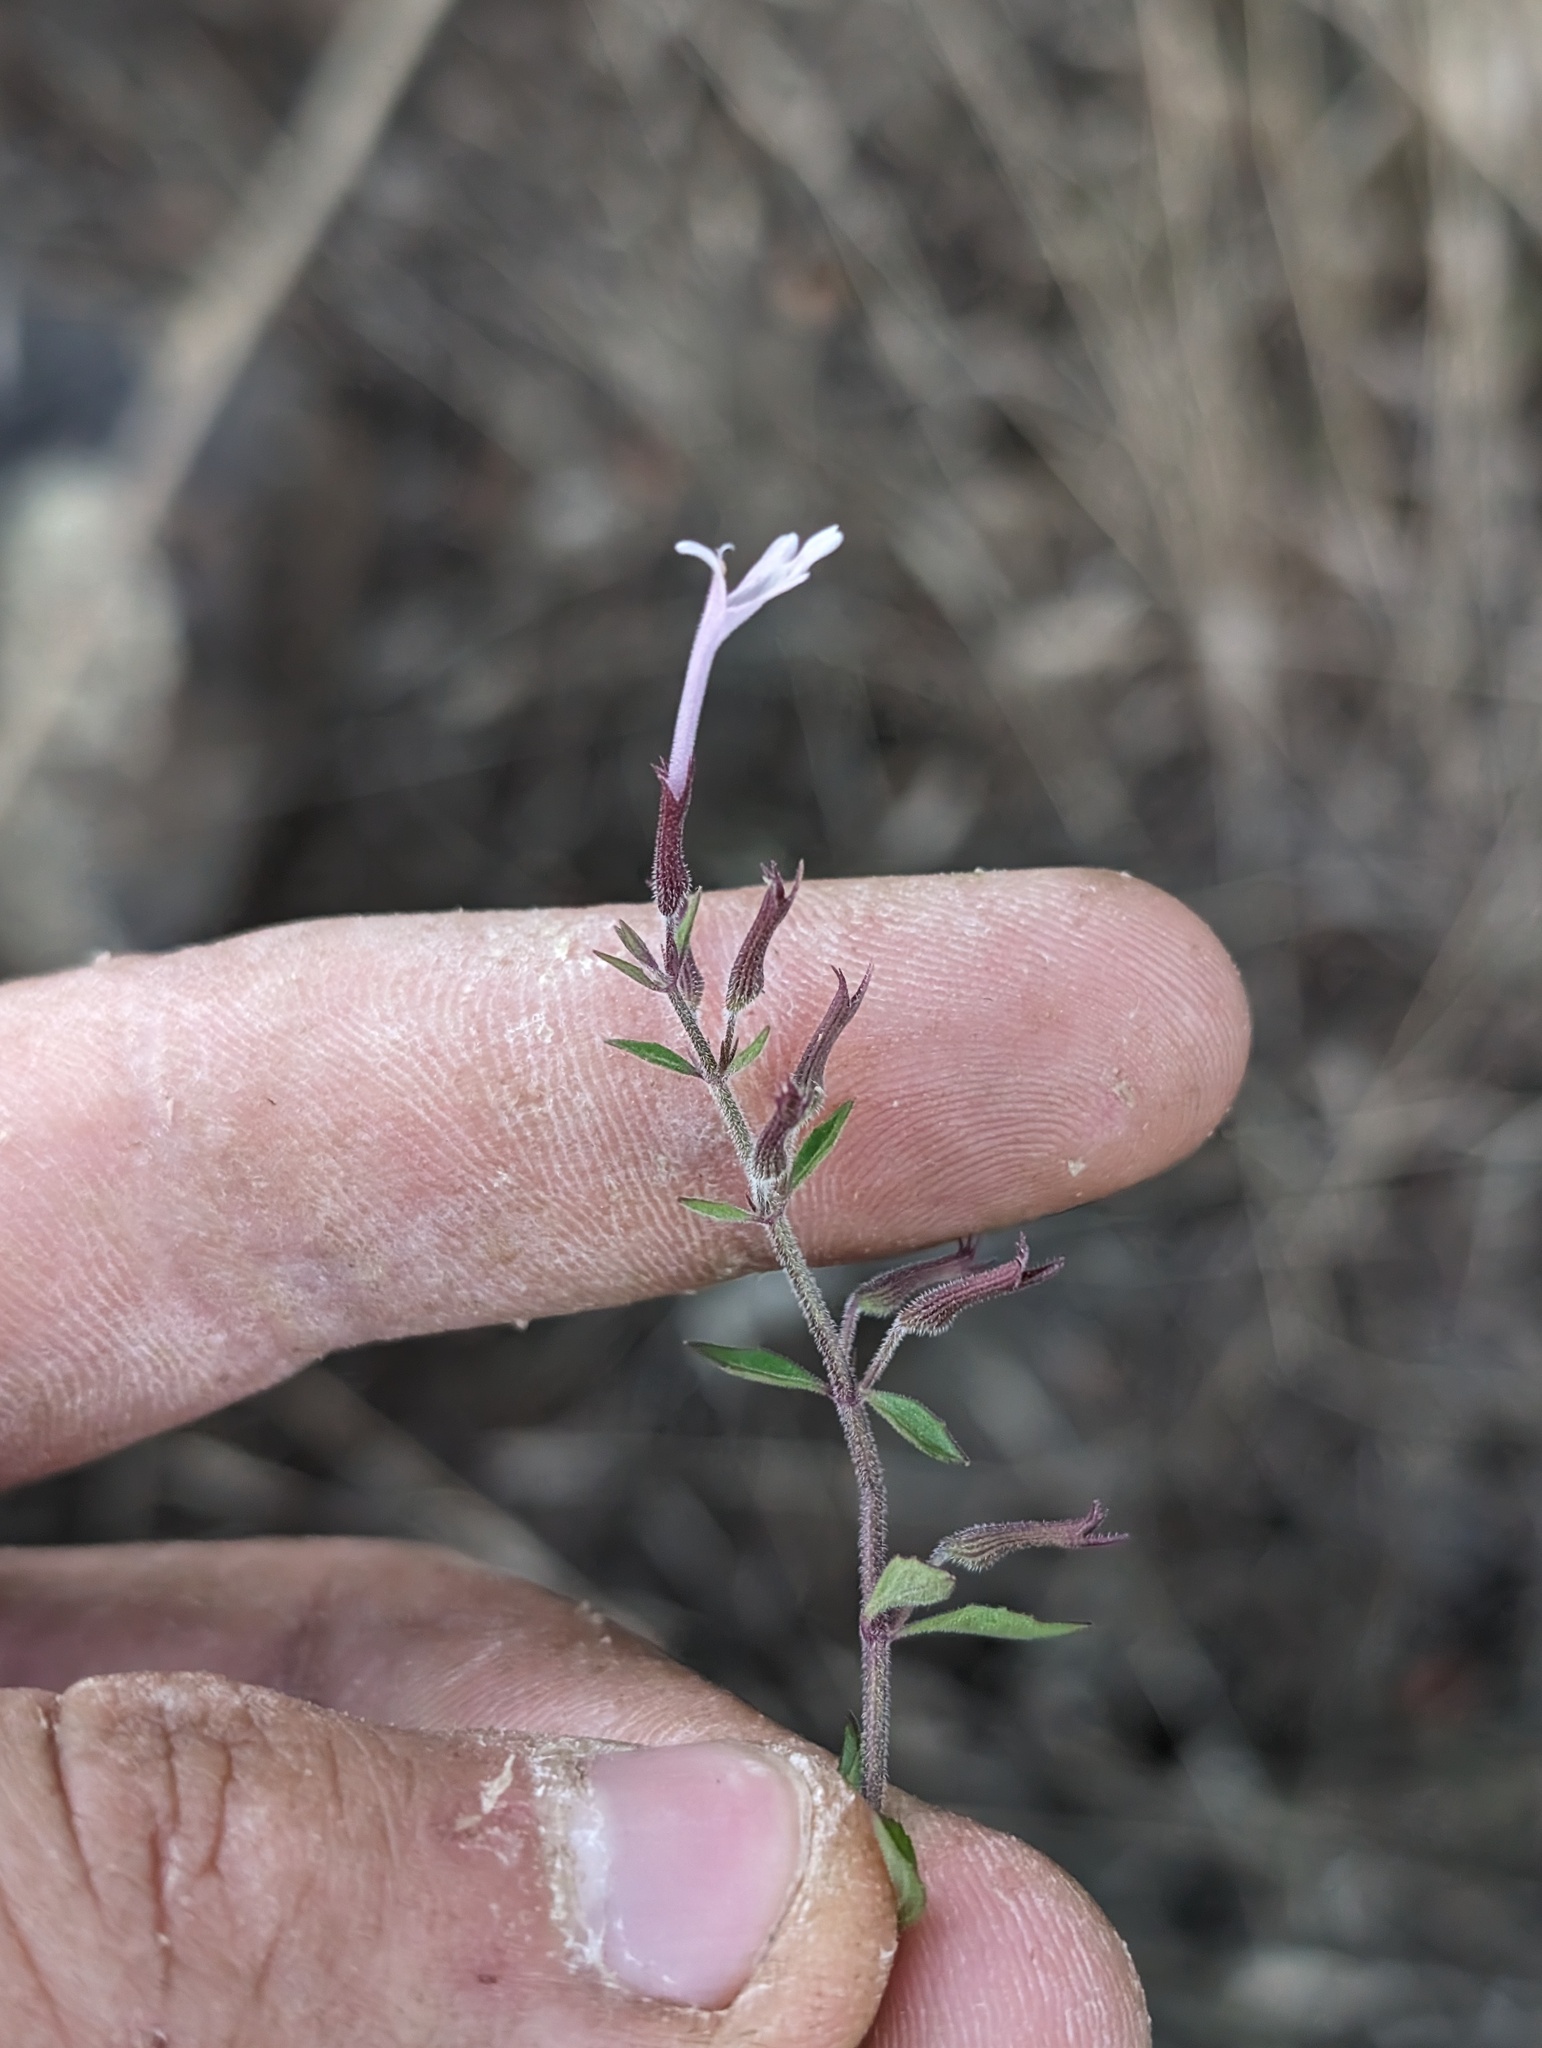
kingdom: Plantae
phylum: Tracheophyta
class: Magnoliopsida
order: Lamiales
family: Lamiaceae
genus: Hedeoma
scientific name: Hedeoma tenuiflora
